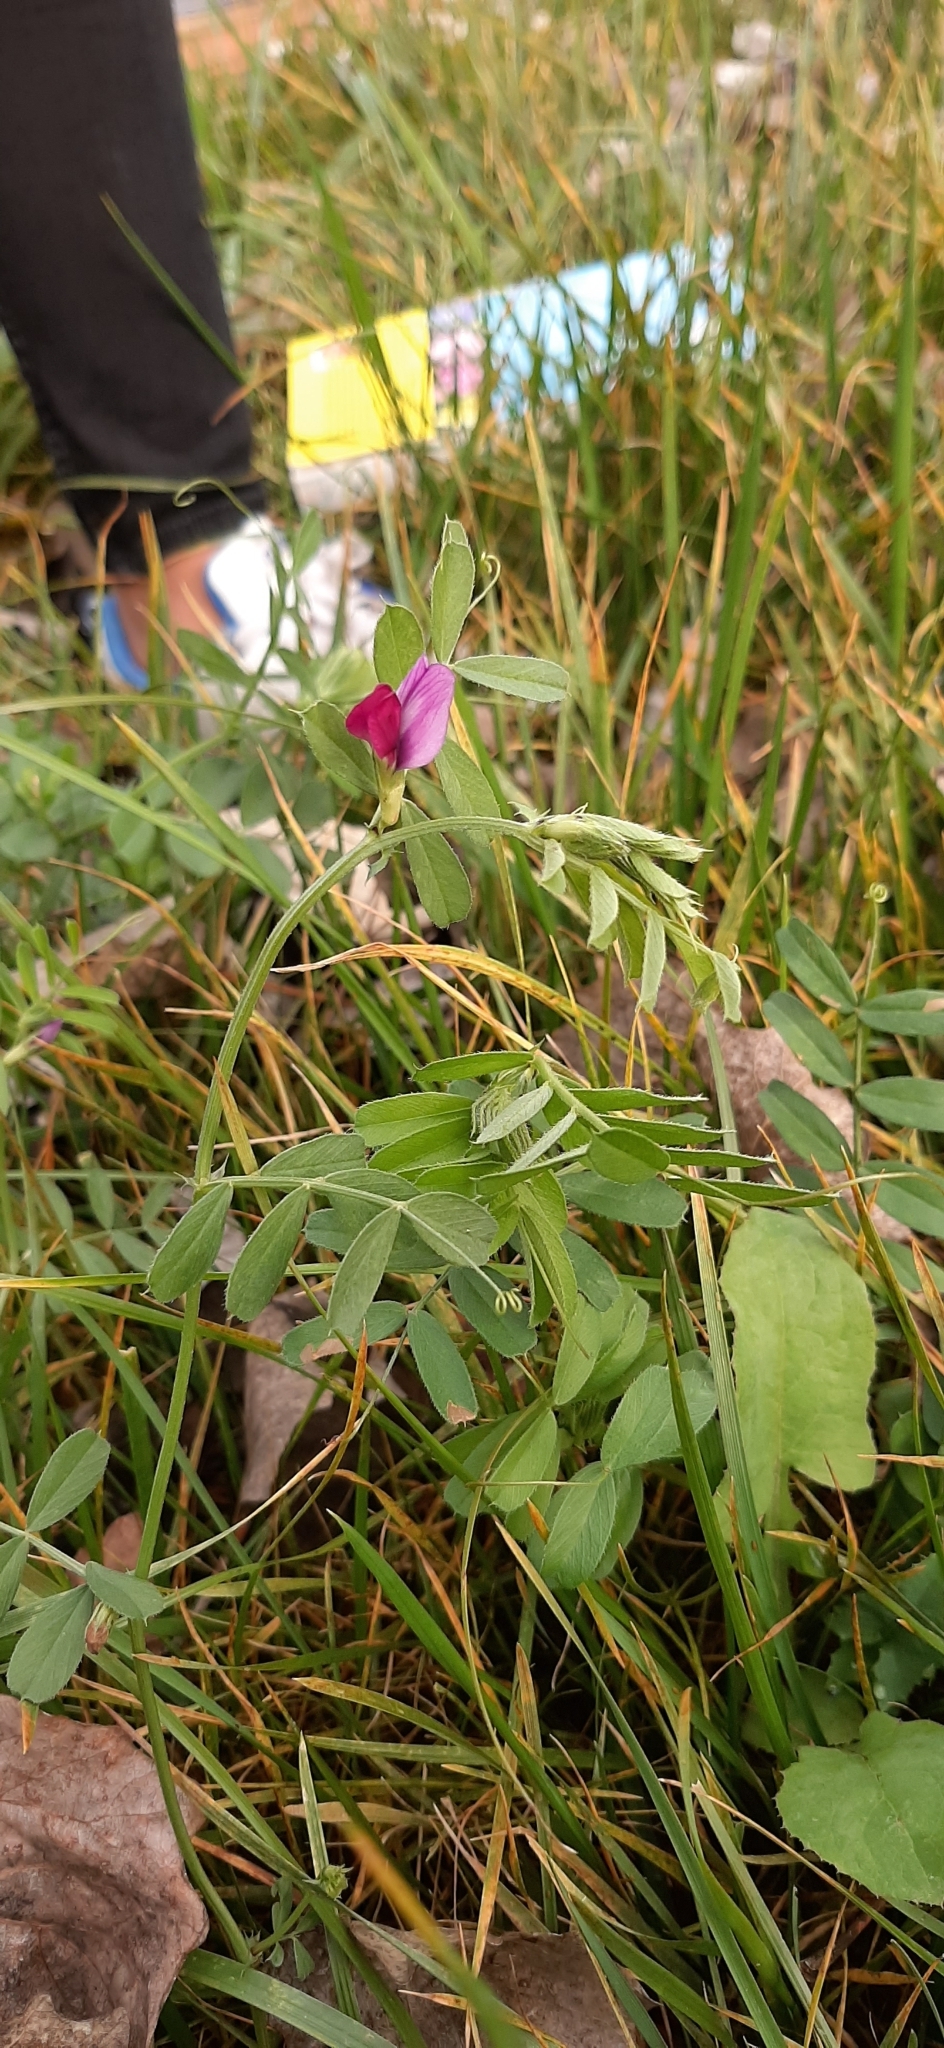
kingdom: Plantae
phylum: Tracheophyta
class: Magnoliopsida
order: Fabales
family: Fabaceae
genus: Vicia
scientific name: Vicia sativa
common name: Garden vetch
